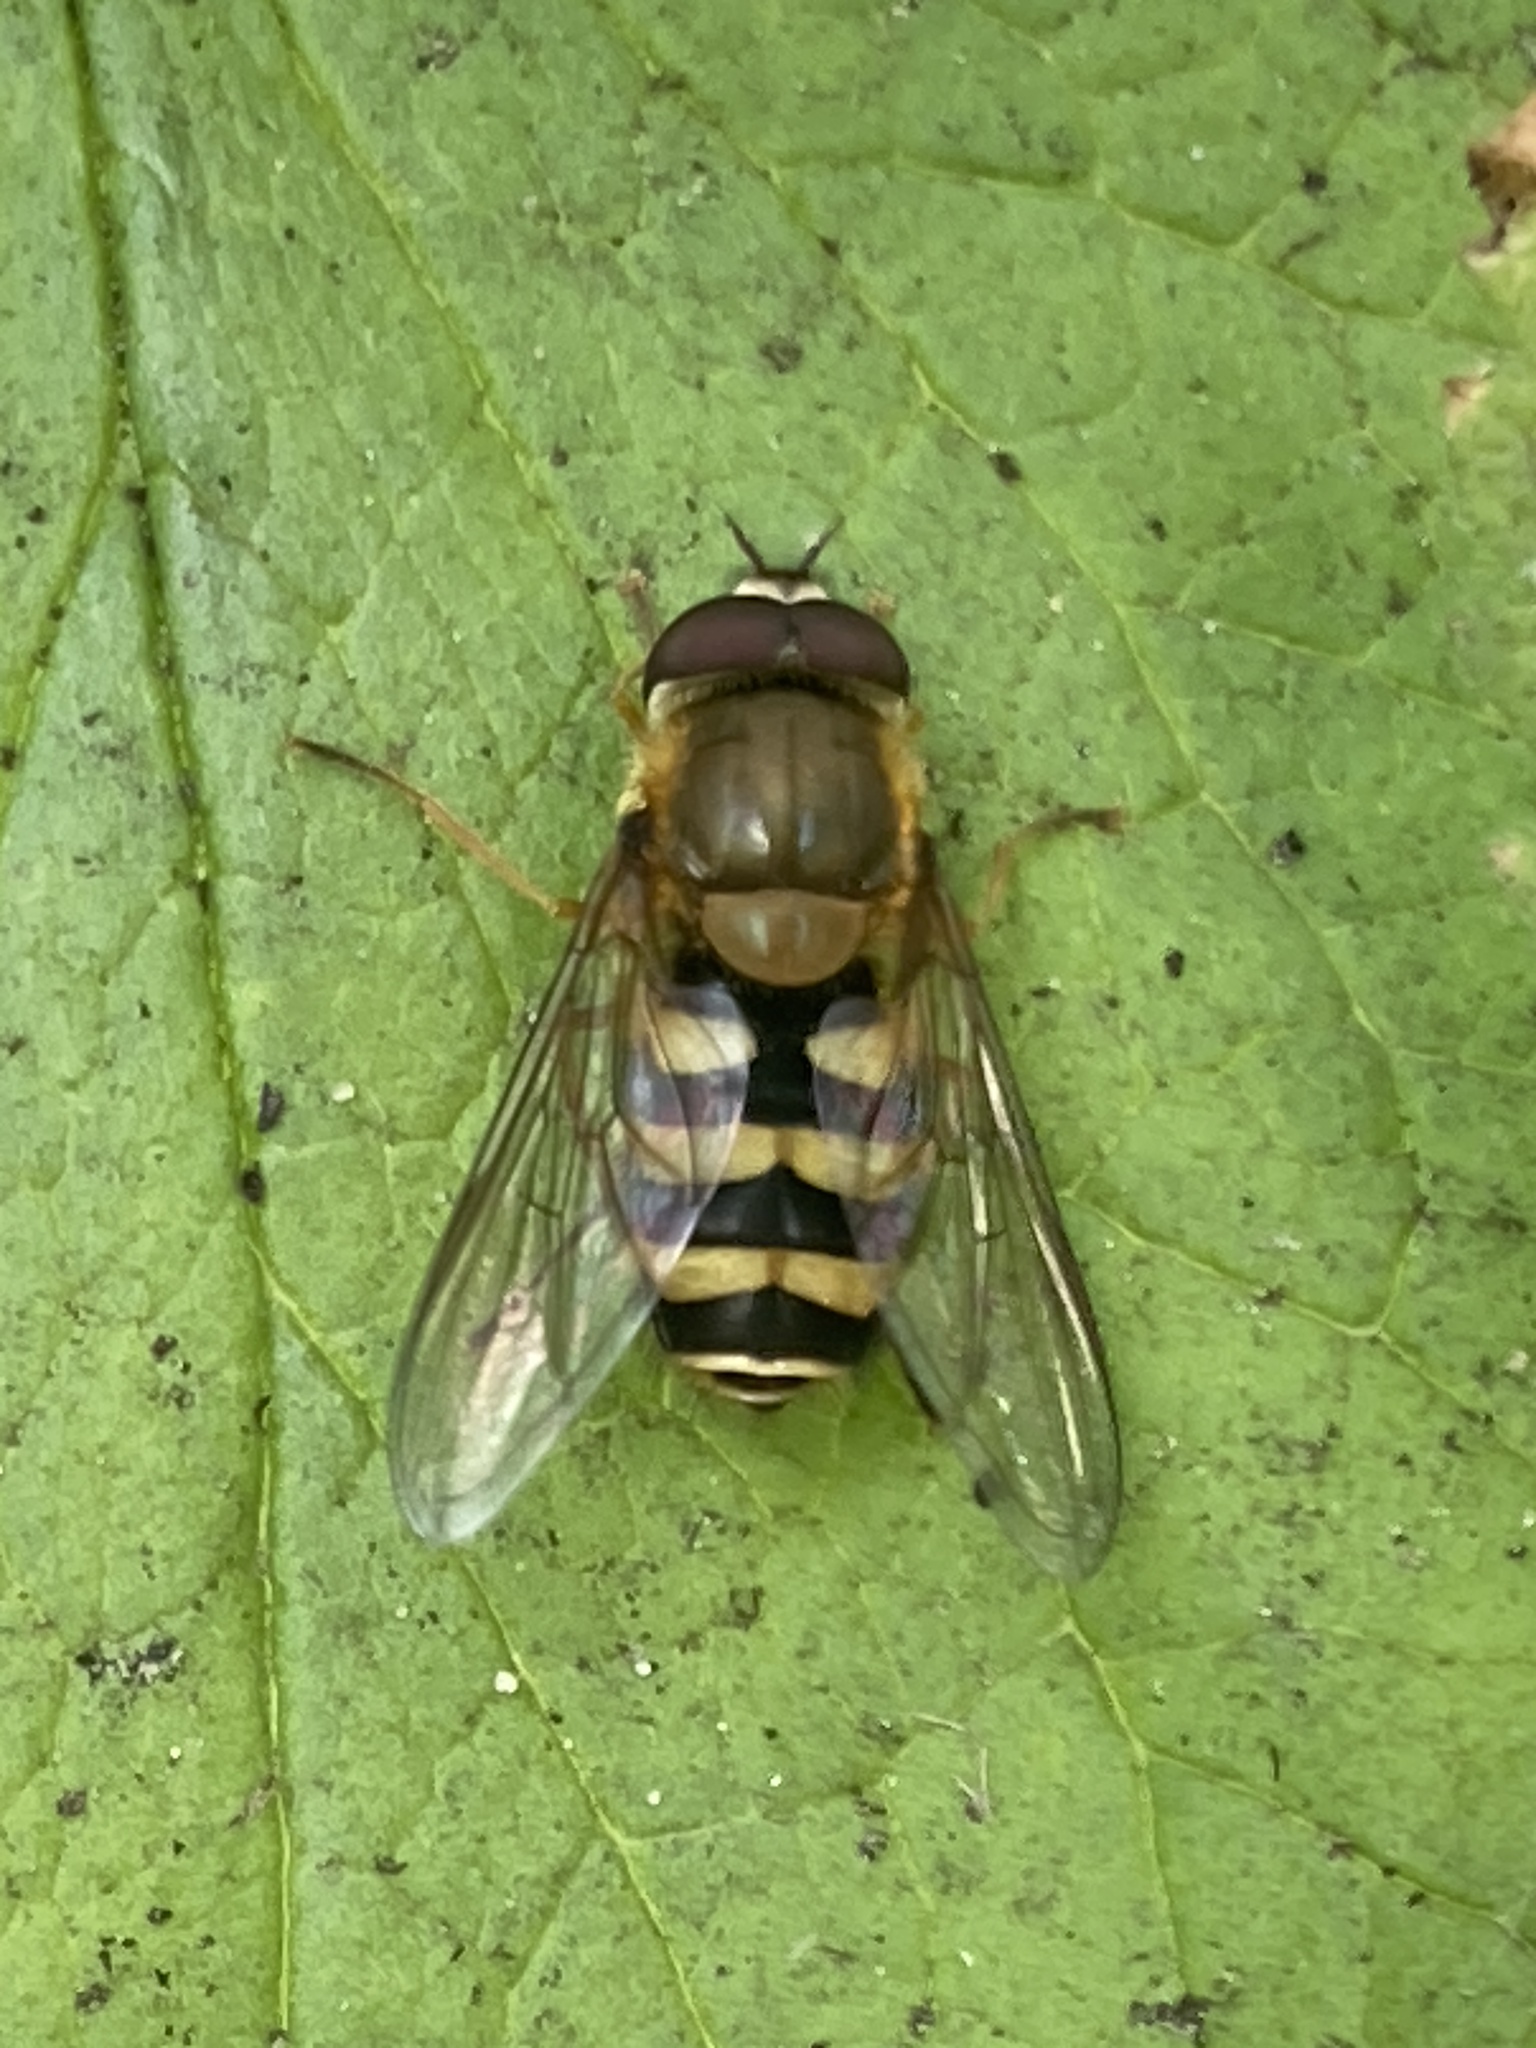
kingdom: Animalia
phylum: Arthropoda
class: Insecta
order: Diptera
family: Syrphidae
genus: Syrphus
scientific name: Syrphus
